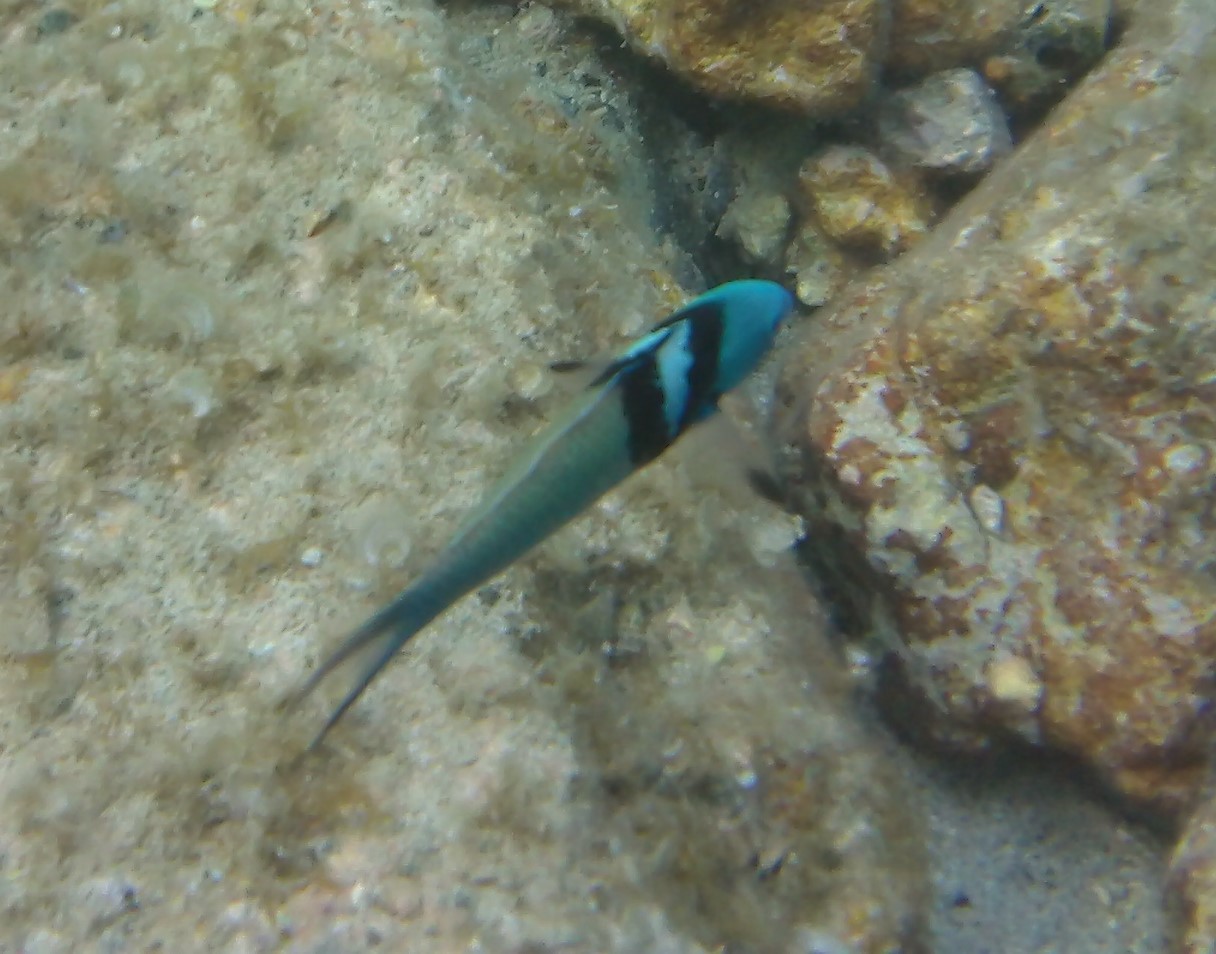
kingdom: Animalia
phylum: Chordata
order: Perciformes
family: Labridae
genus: Thalassoma
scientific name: Thalassoma bifasciatum
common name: Bluehead wrasse
